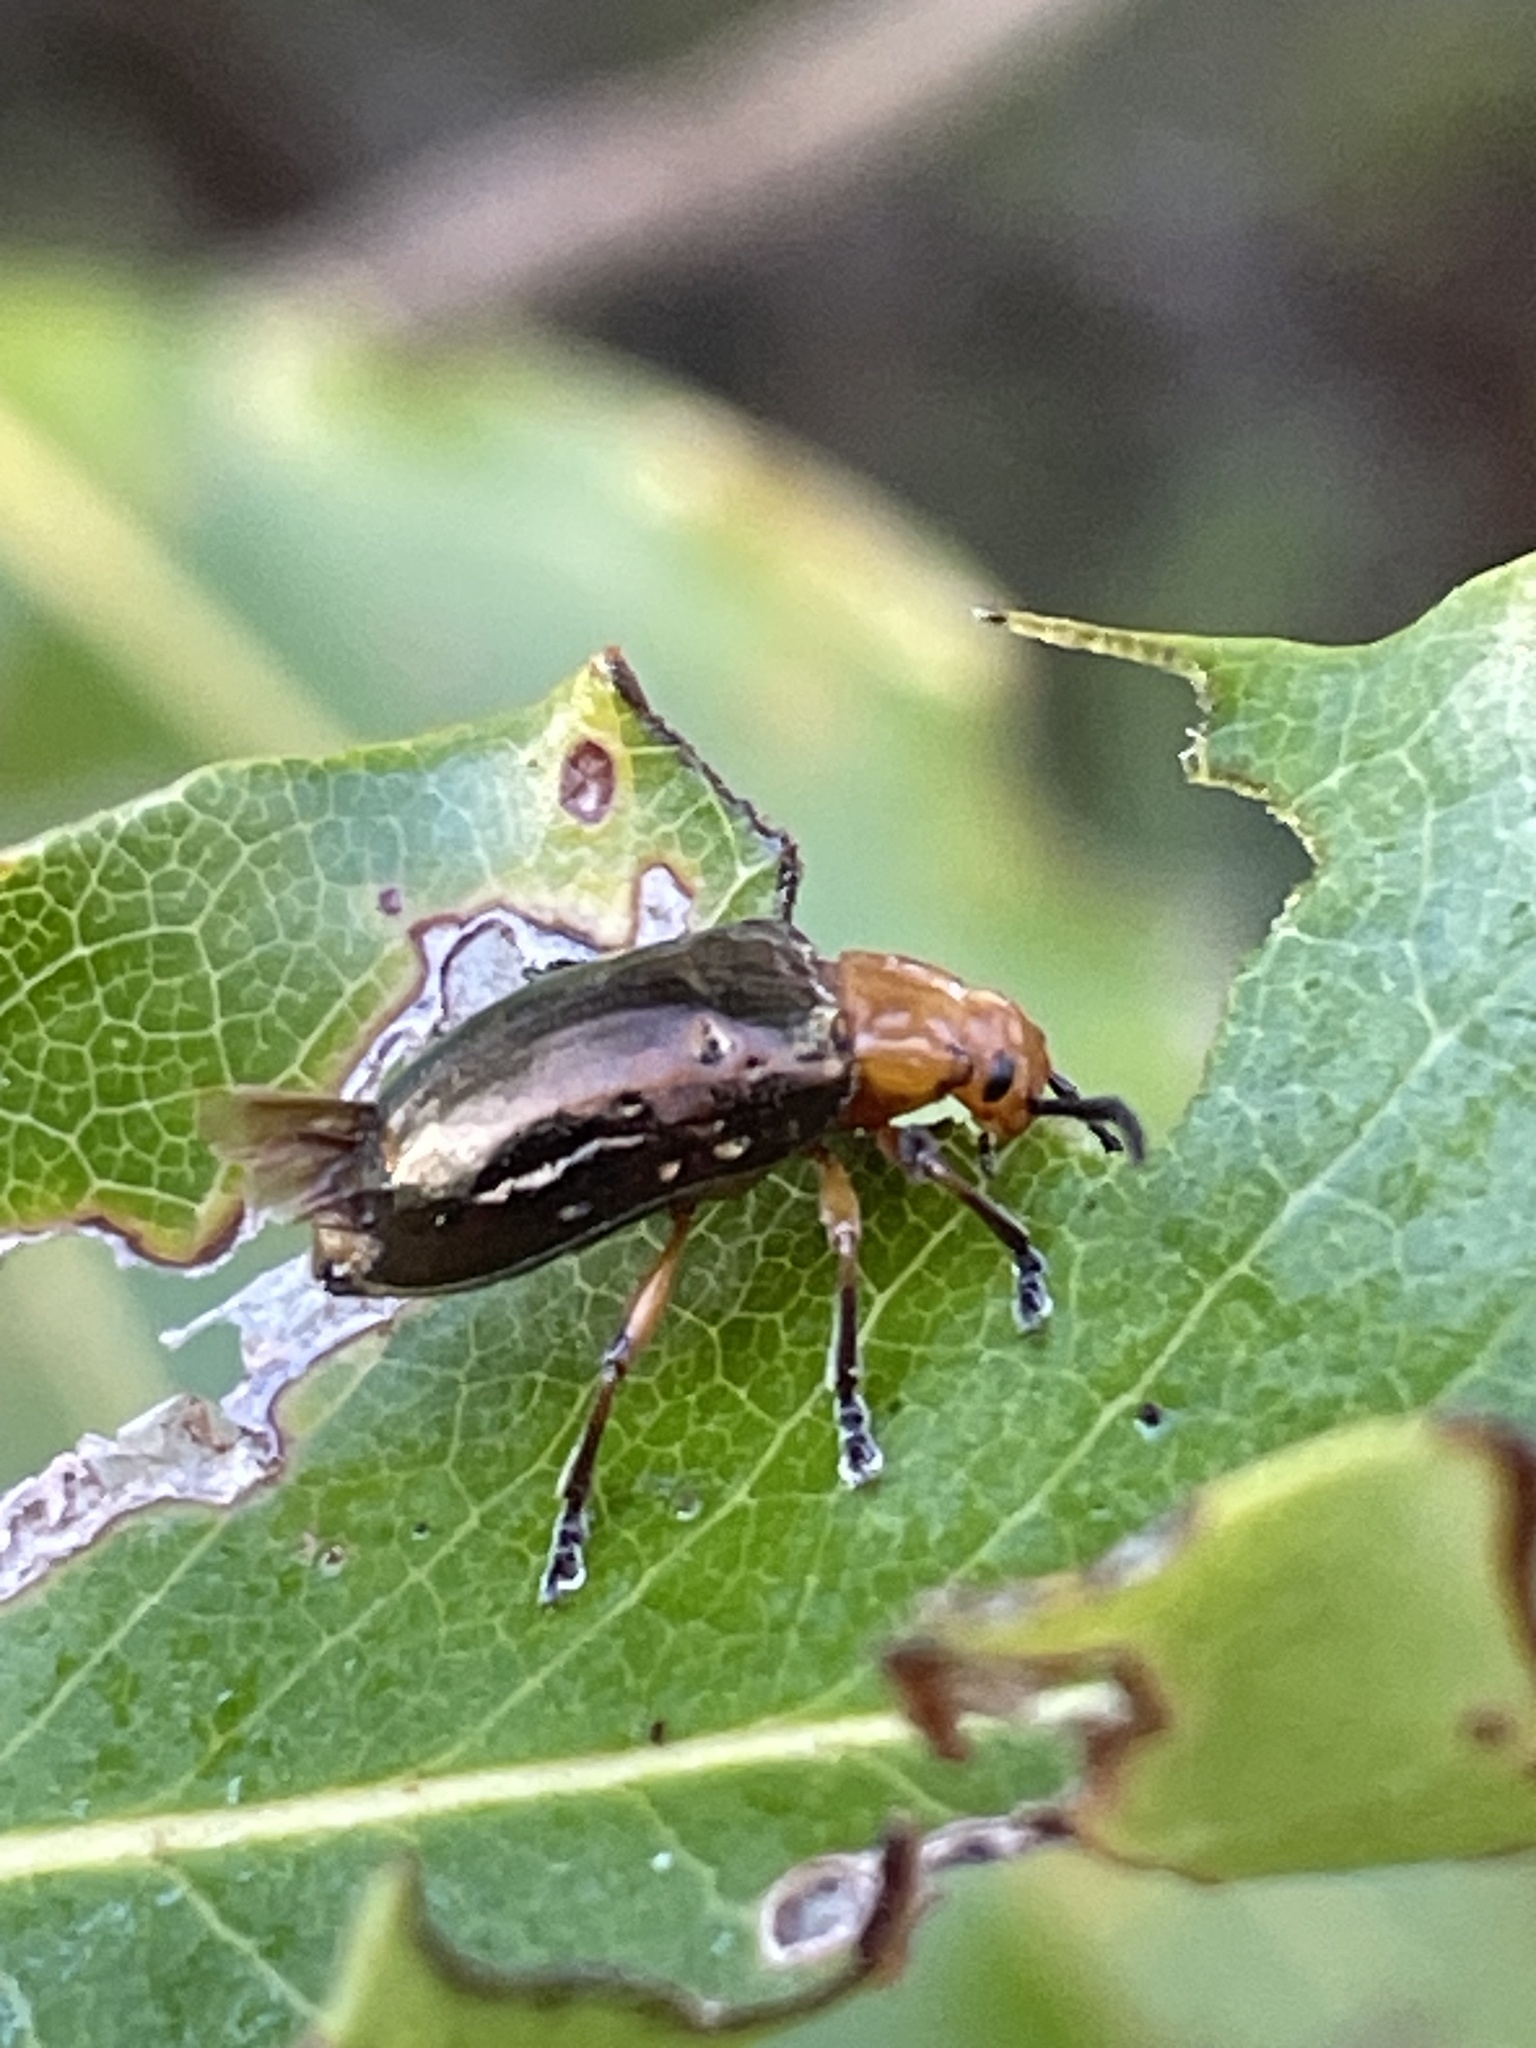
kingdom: Animalia
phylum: Arthropoda
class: Insecta
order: Coleoptera
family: Chrysomelidae
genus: Lamprolina
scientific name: Lamprolina
